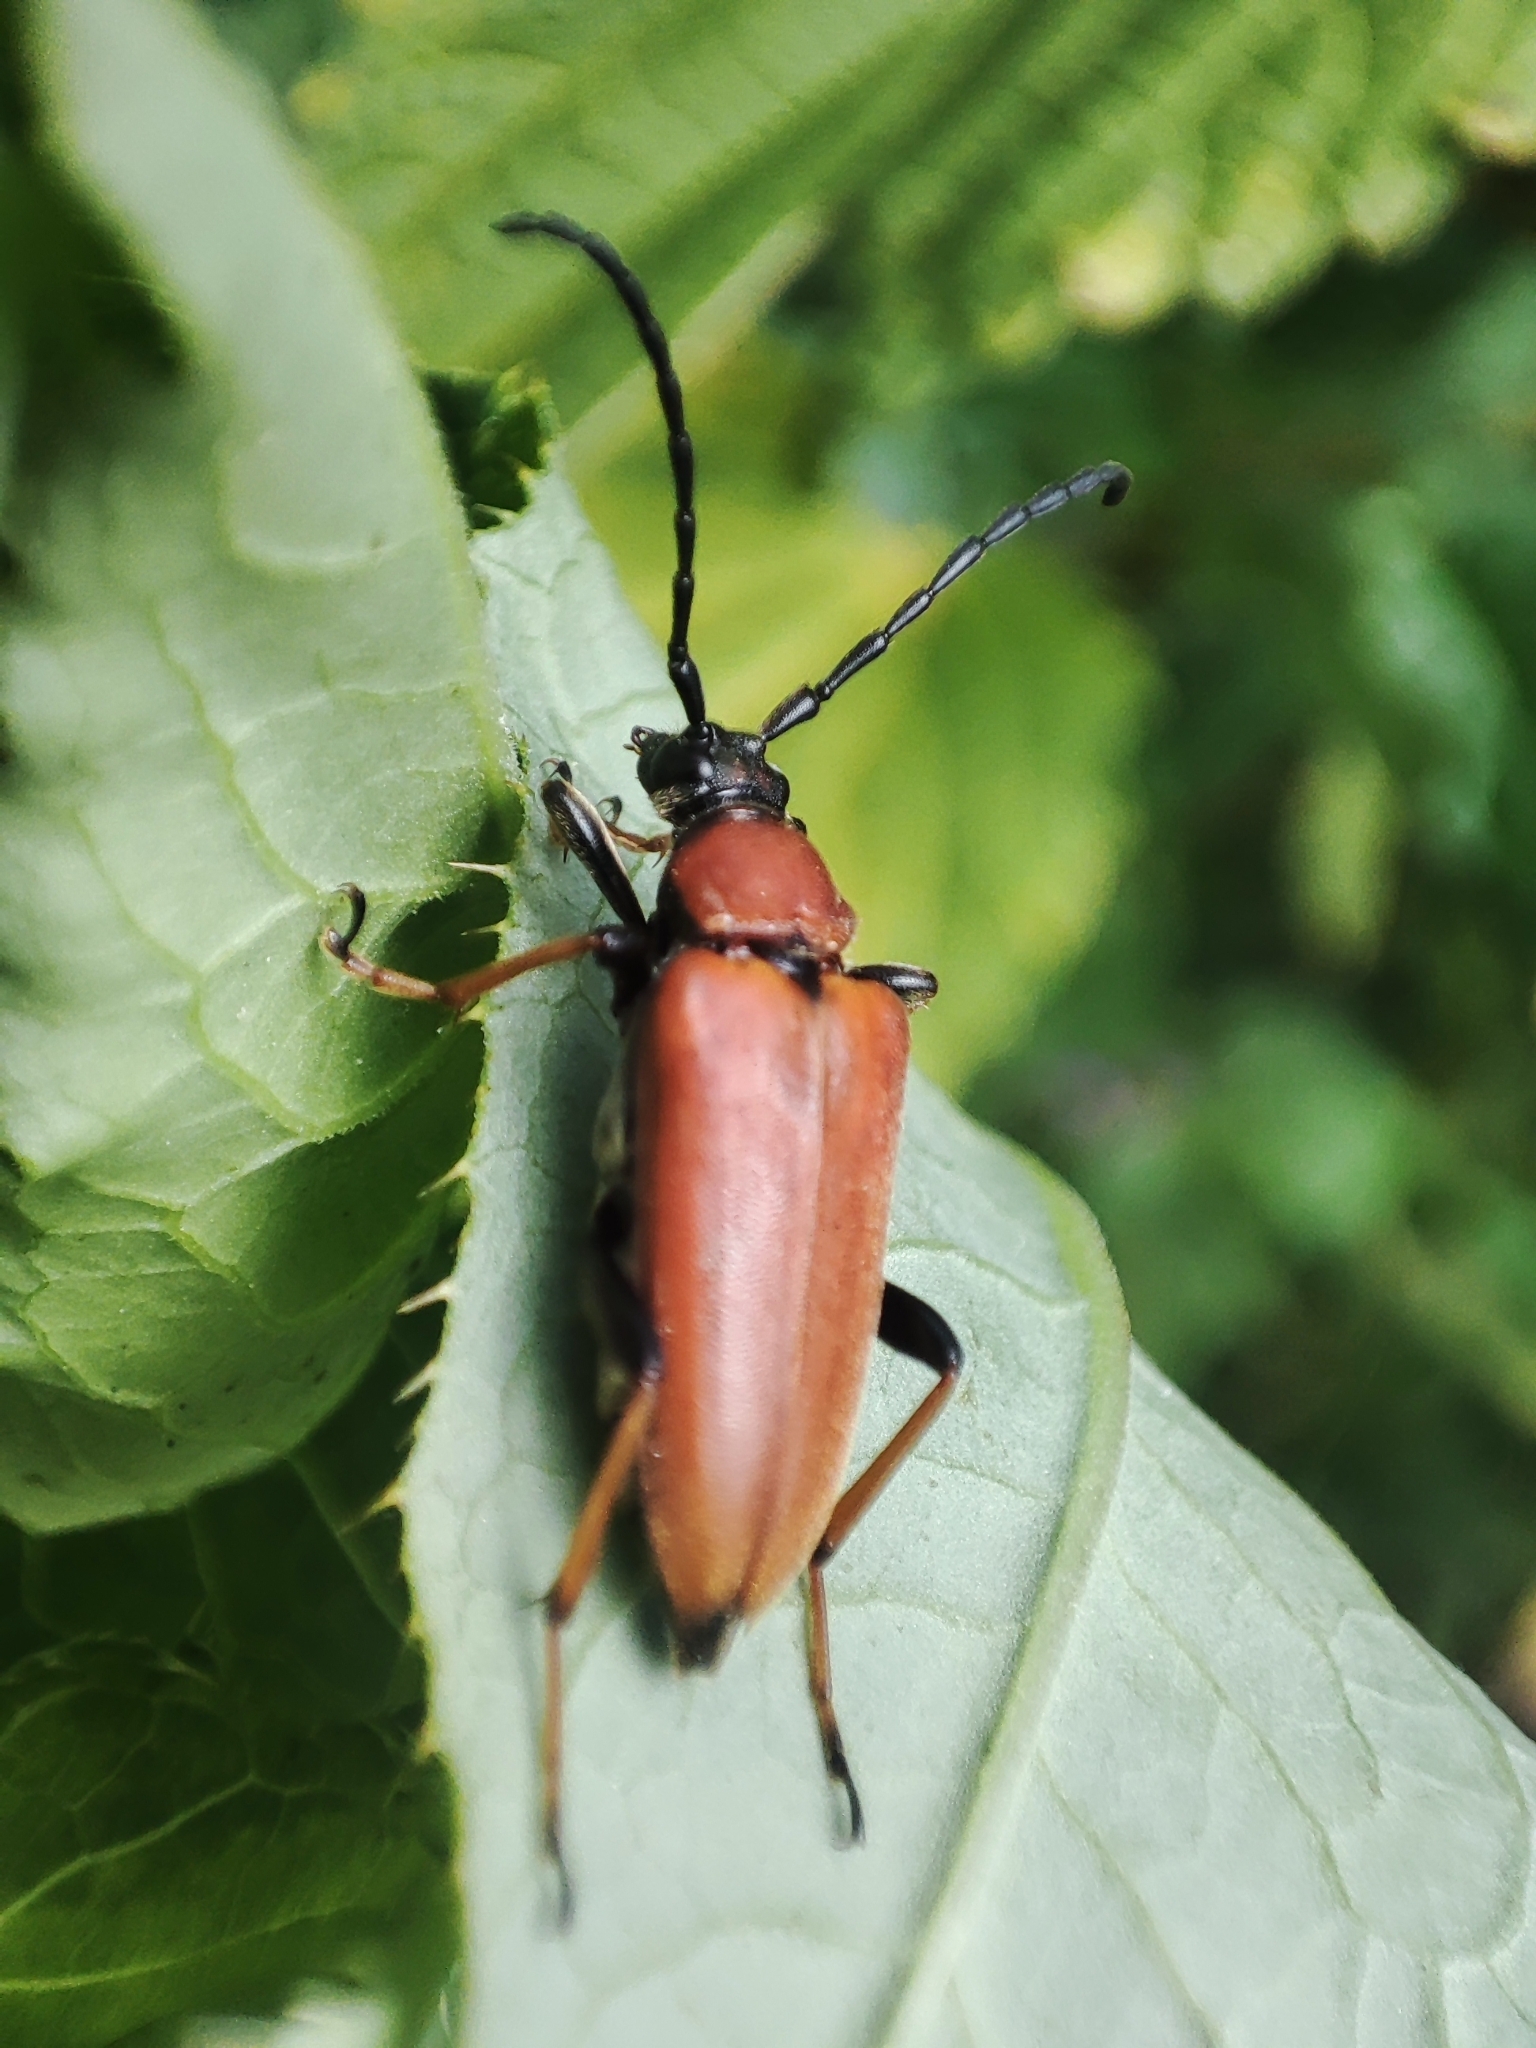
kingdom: Animalia
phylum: Arthropoda
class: Insecta
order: Coleoptera
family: Cerambycidae
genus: Stictoleptura
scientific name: Stictoleptura rubra
